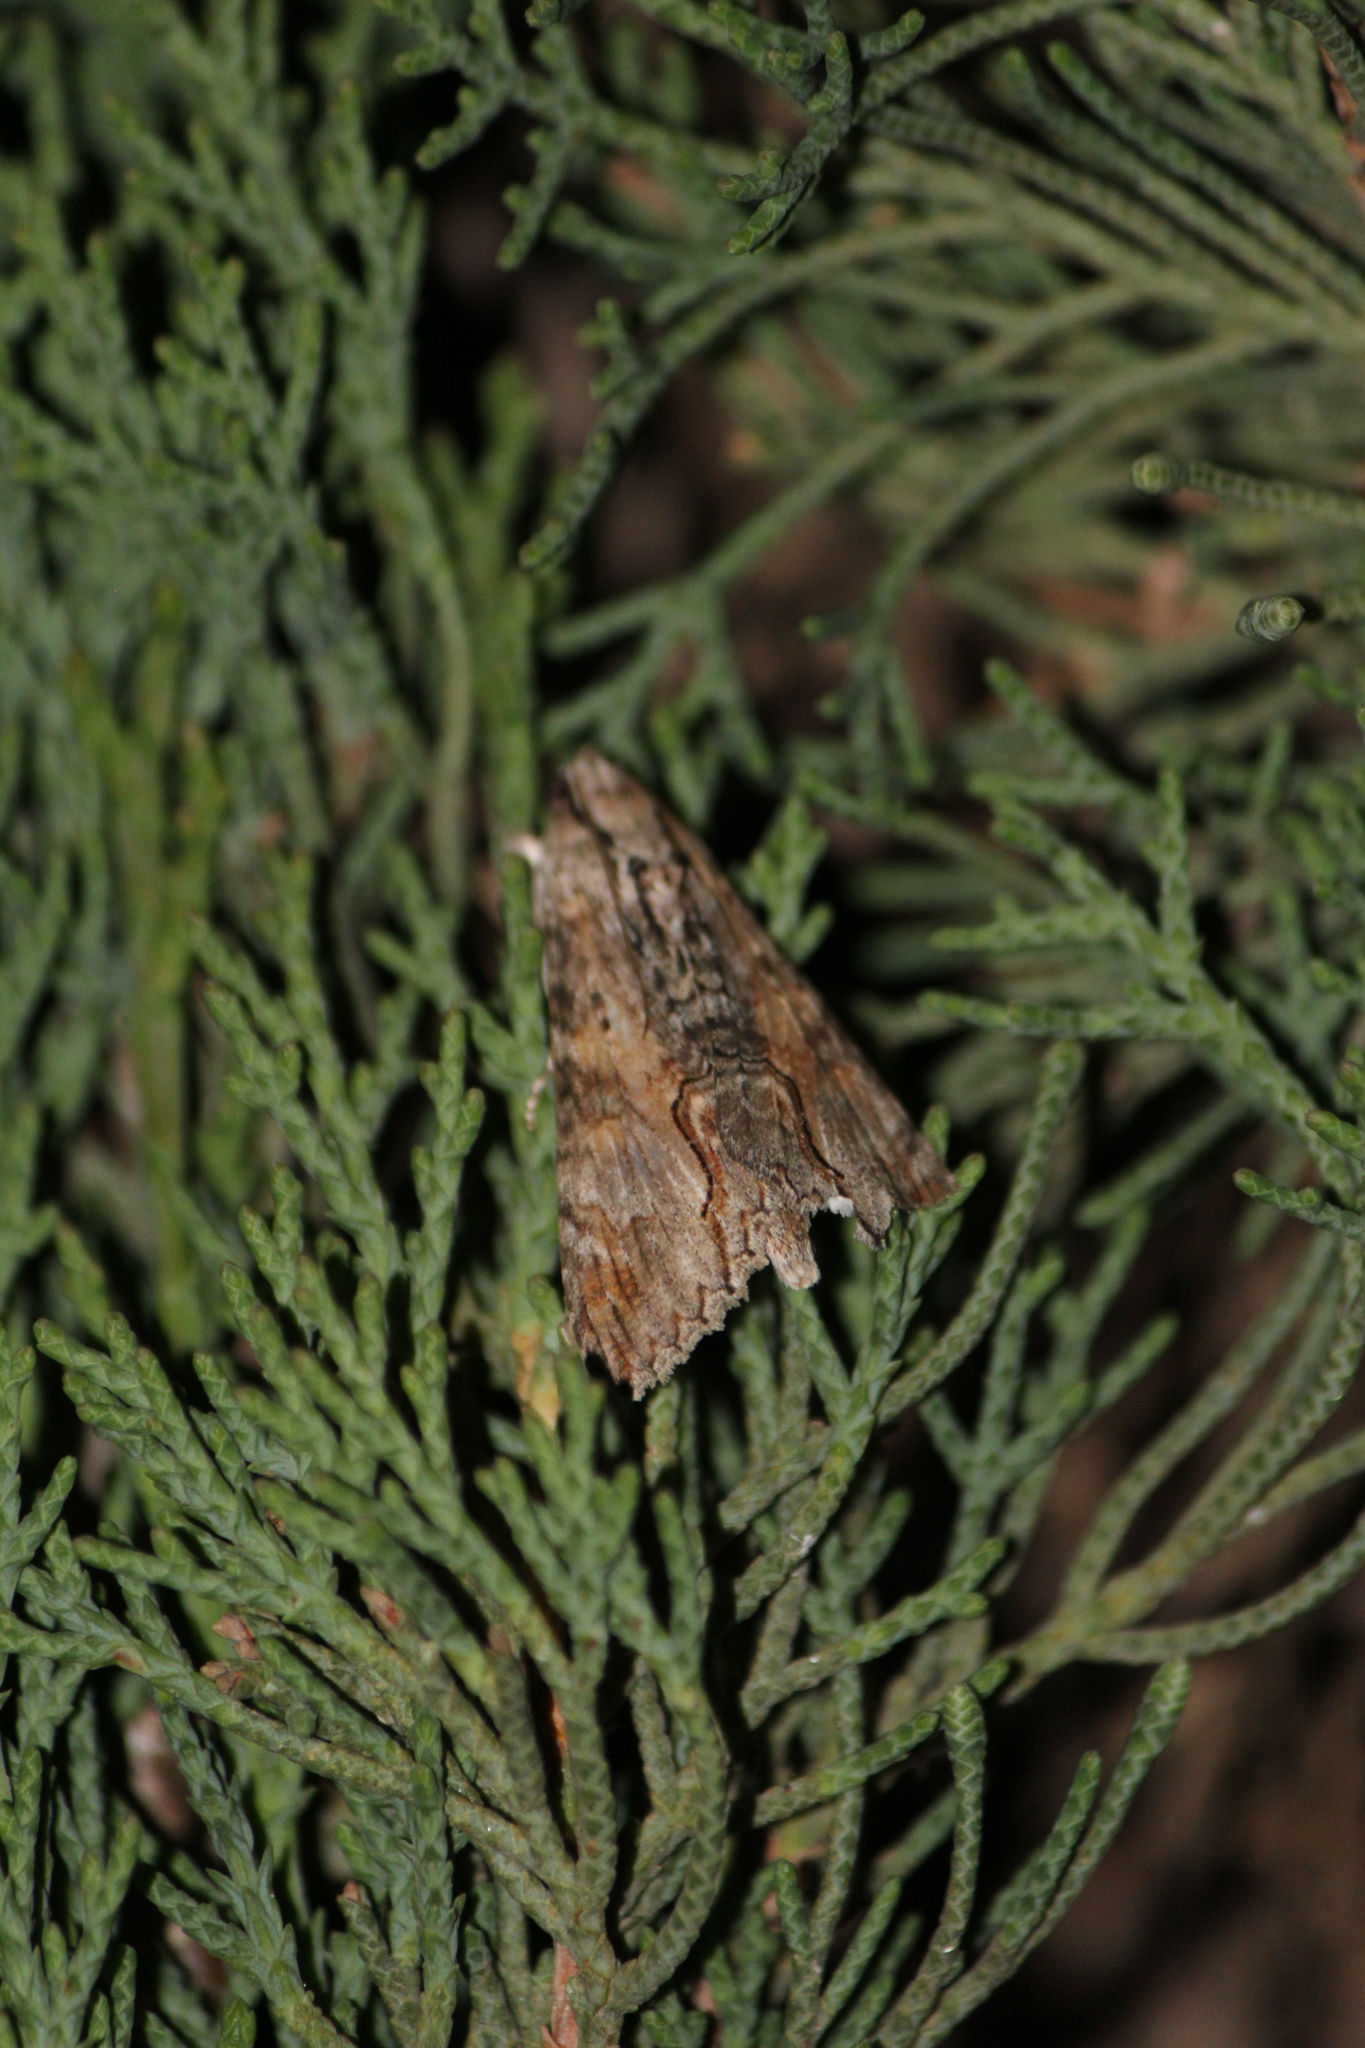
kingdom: Animalia
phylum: Arthropoda
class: Insecta
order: Lepidoptera
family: Erebidae
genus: Melipotis
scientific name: Melipotis acontioides
